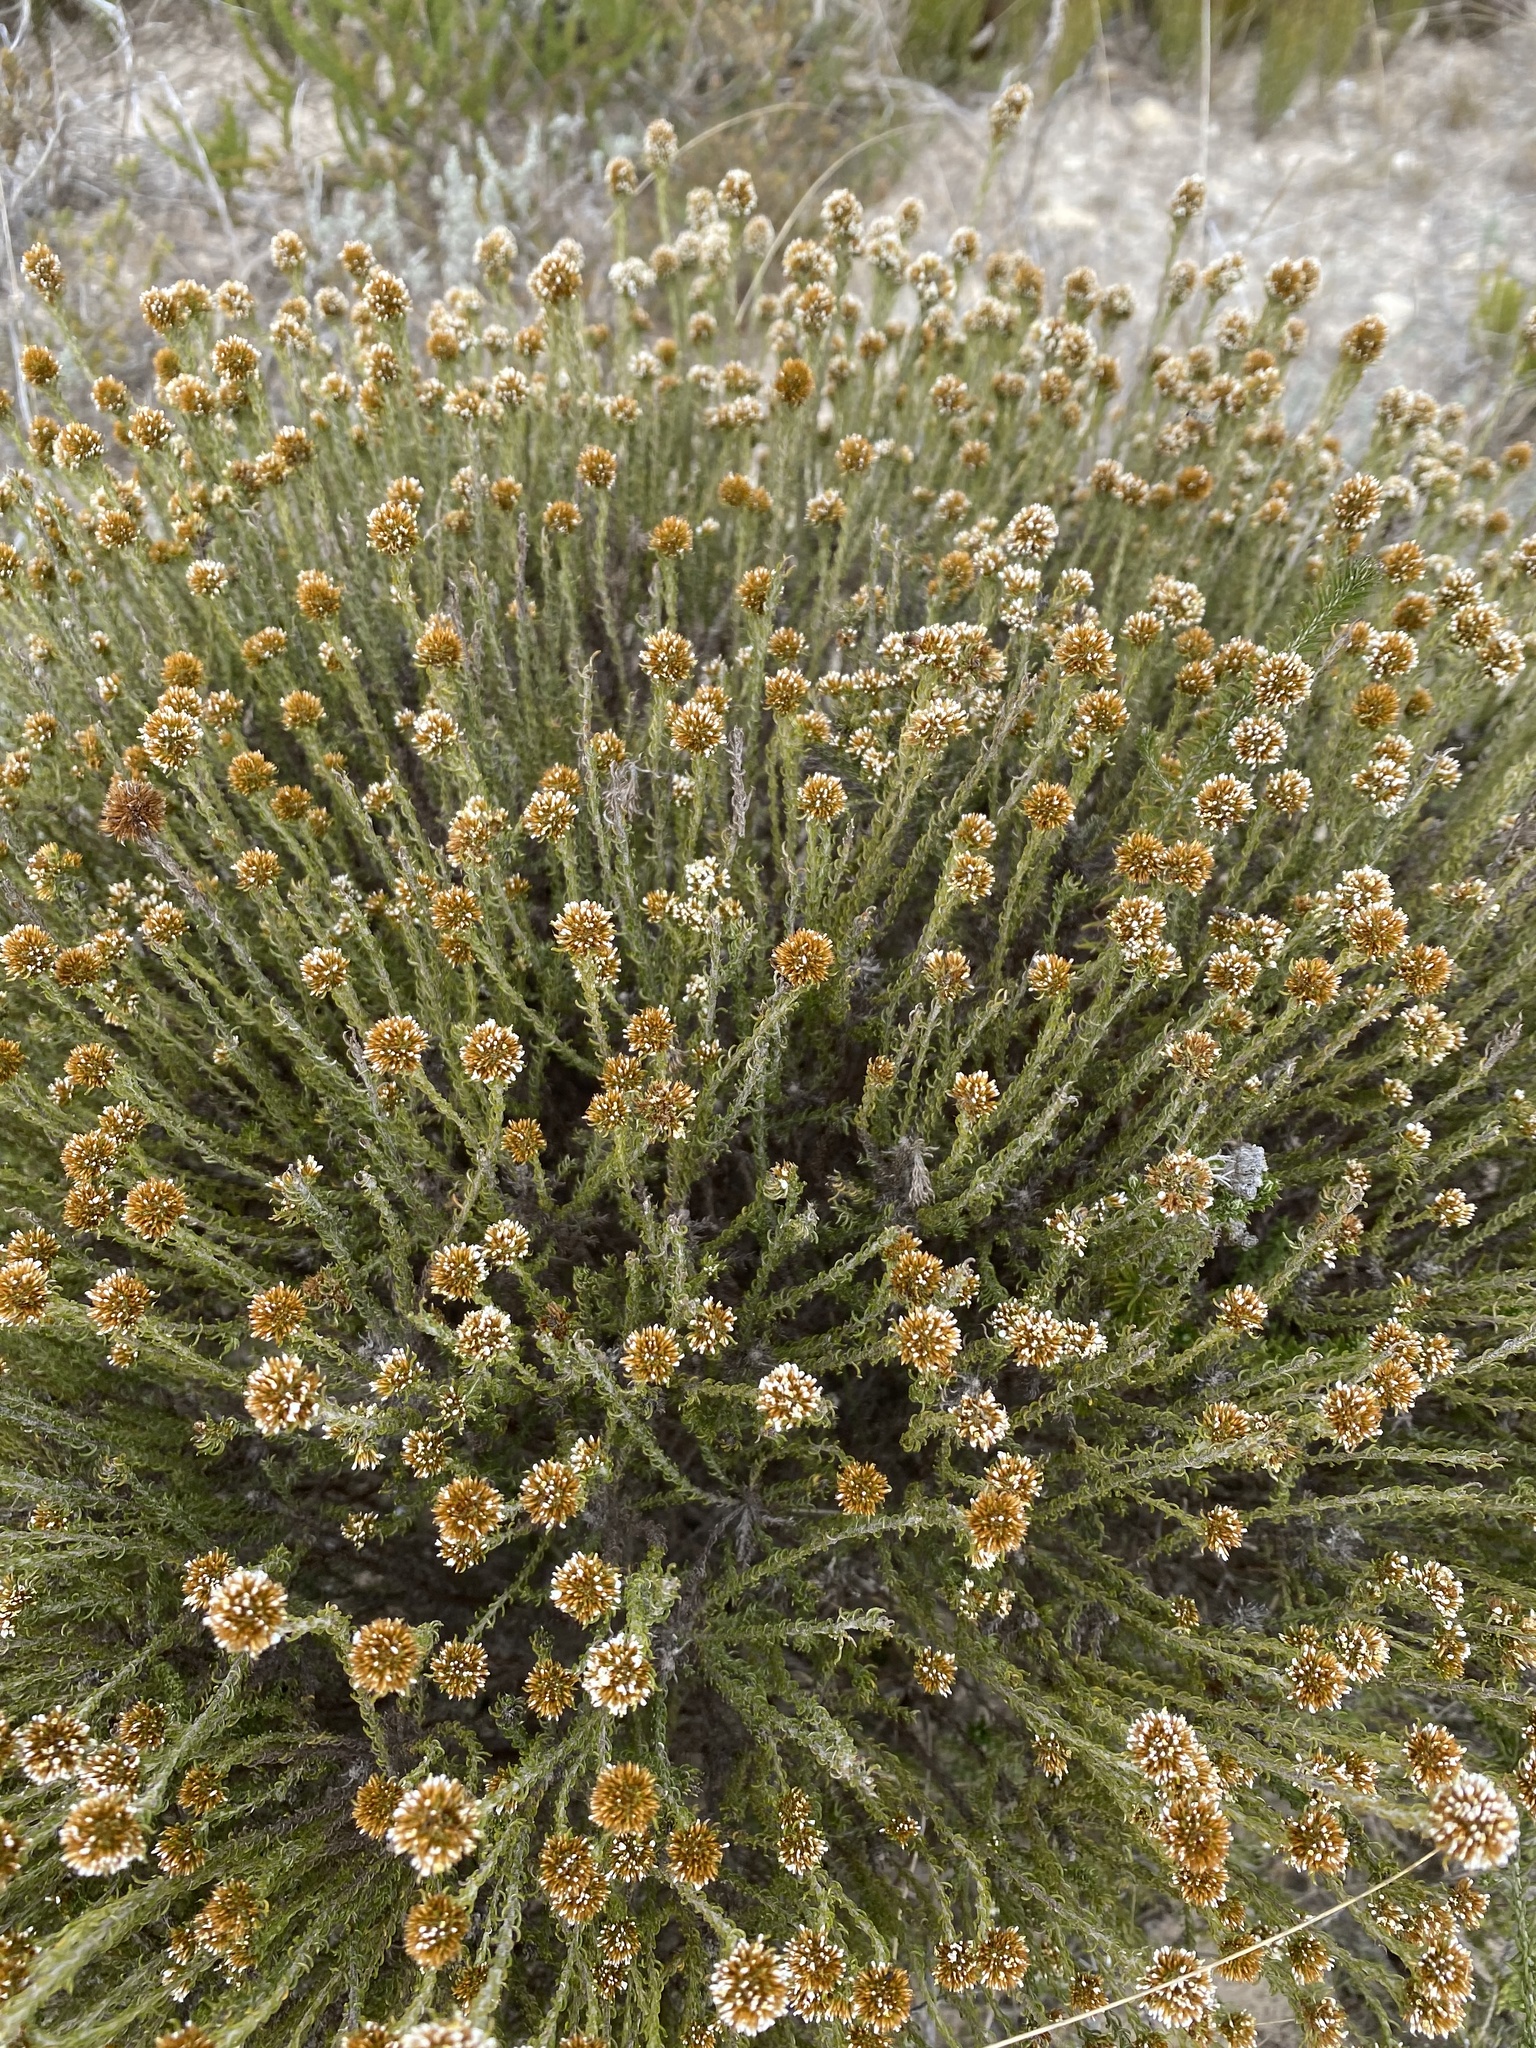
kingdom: Plantae
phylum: Tracheophyta
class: Magnoliopsida
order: Asterales
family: Asteraceae
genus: Disparago
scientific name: Disparago anomala
